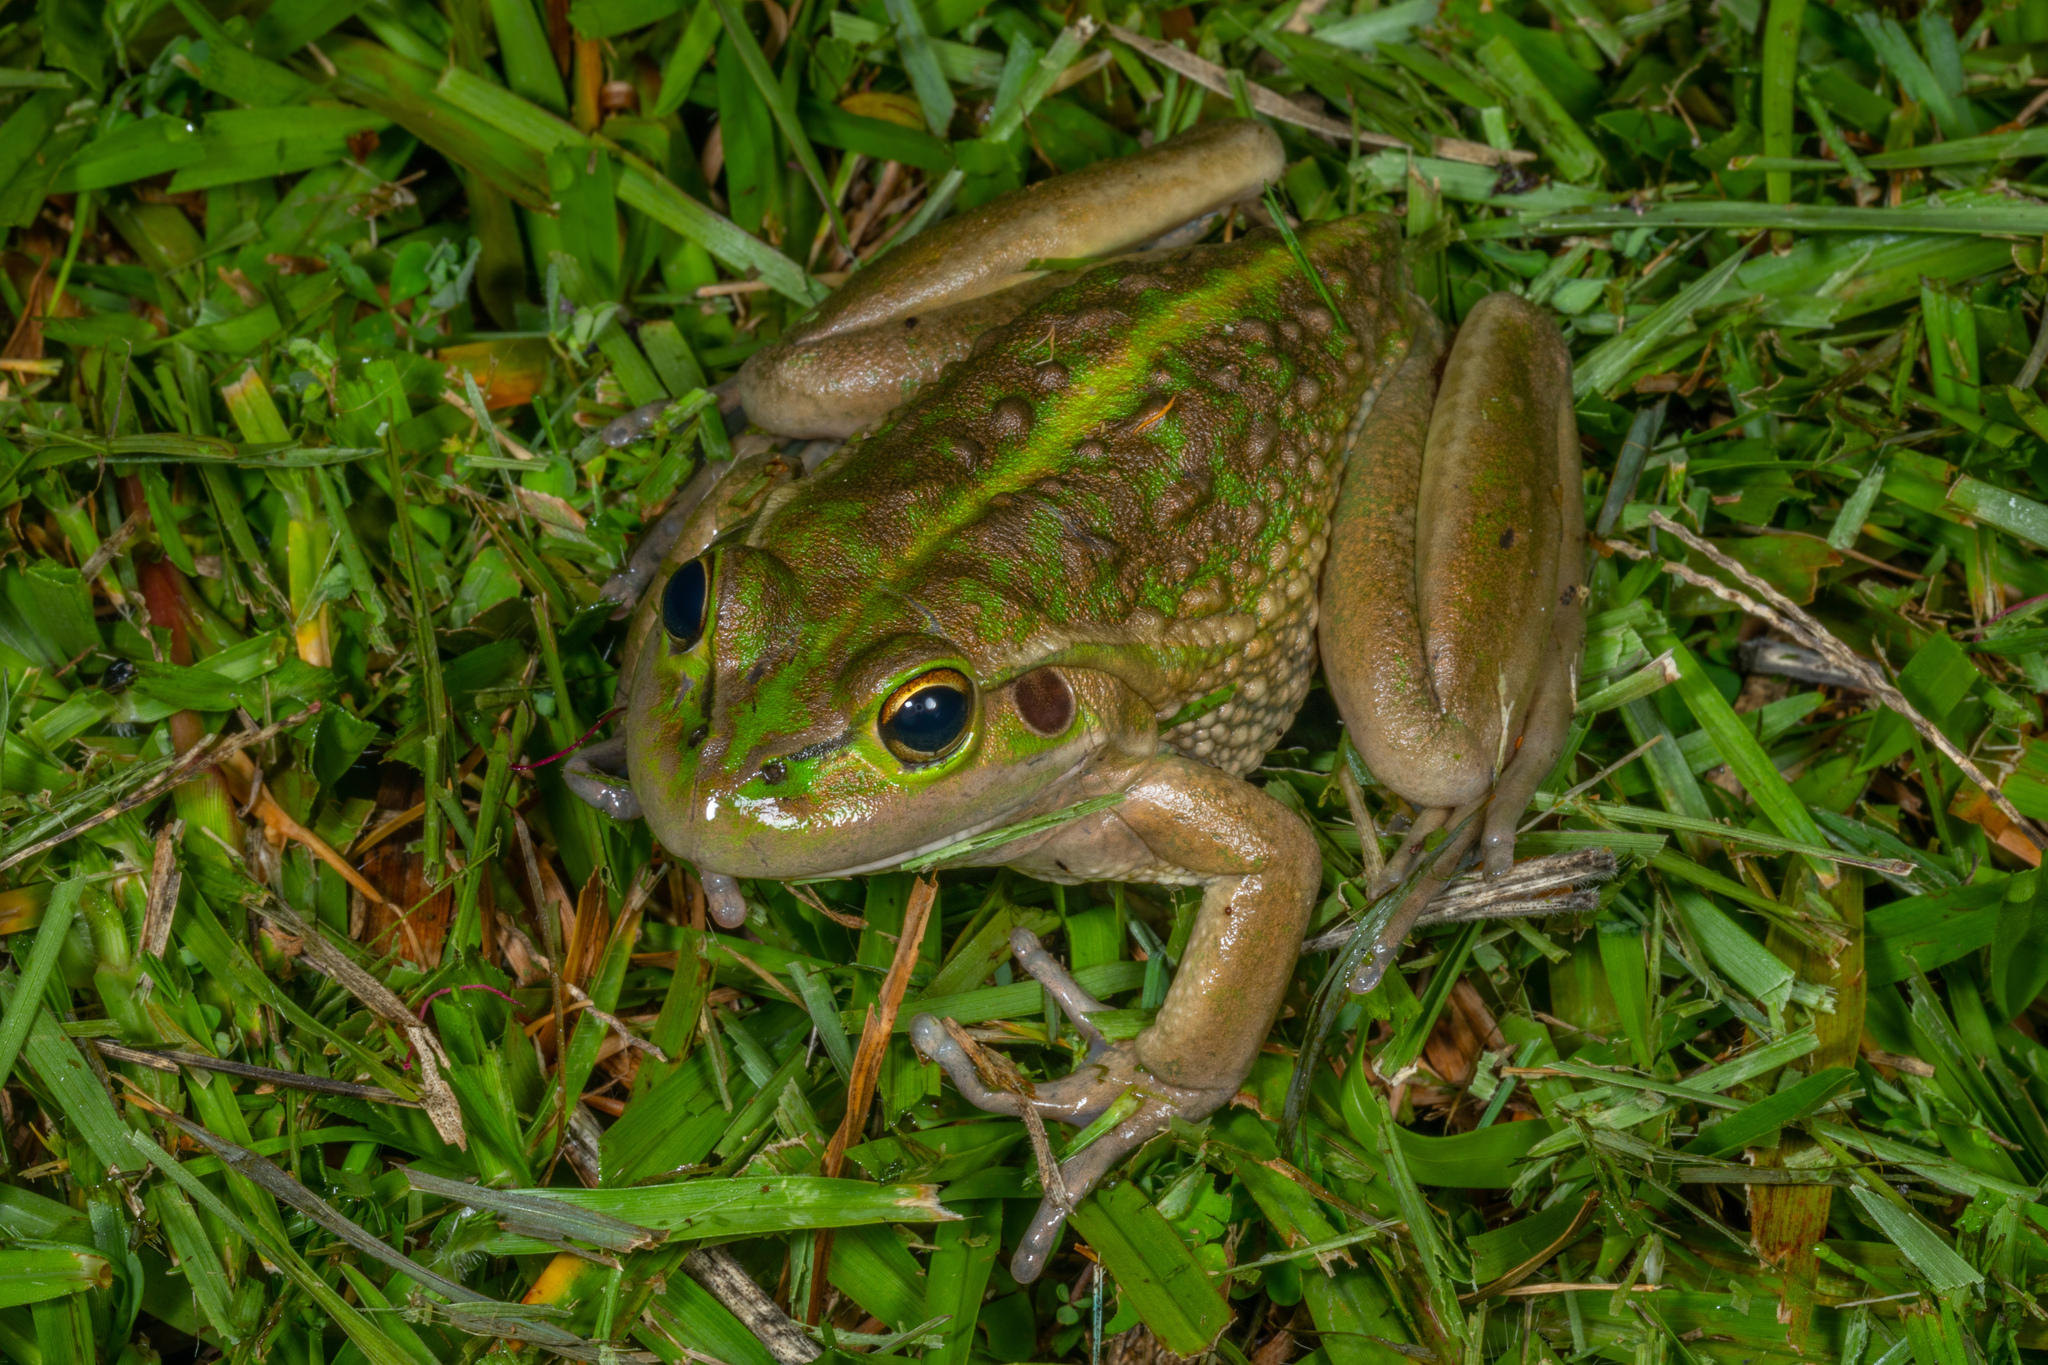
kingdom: Animalia
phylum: Chordata
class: Amphibia
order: Anura
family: Pelodryadidae
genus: Ranoidea
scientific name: Ranoidea raniformis
